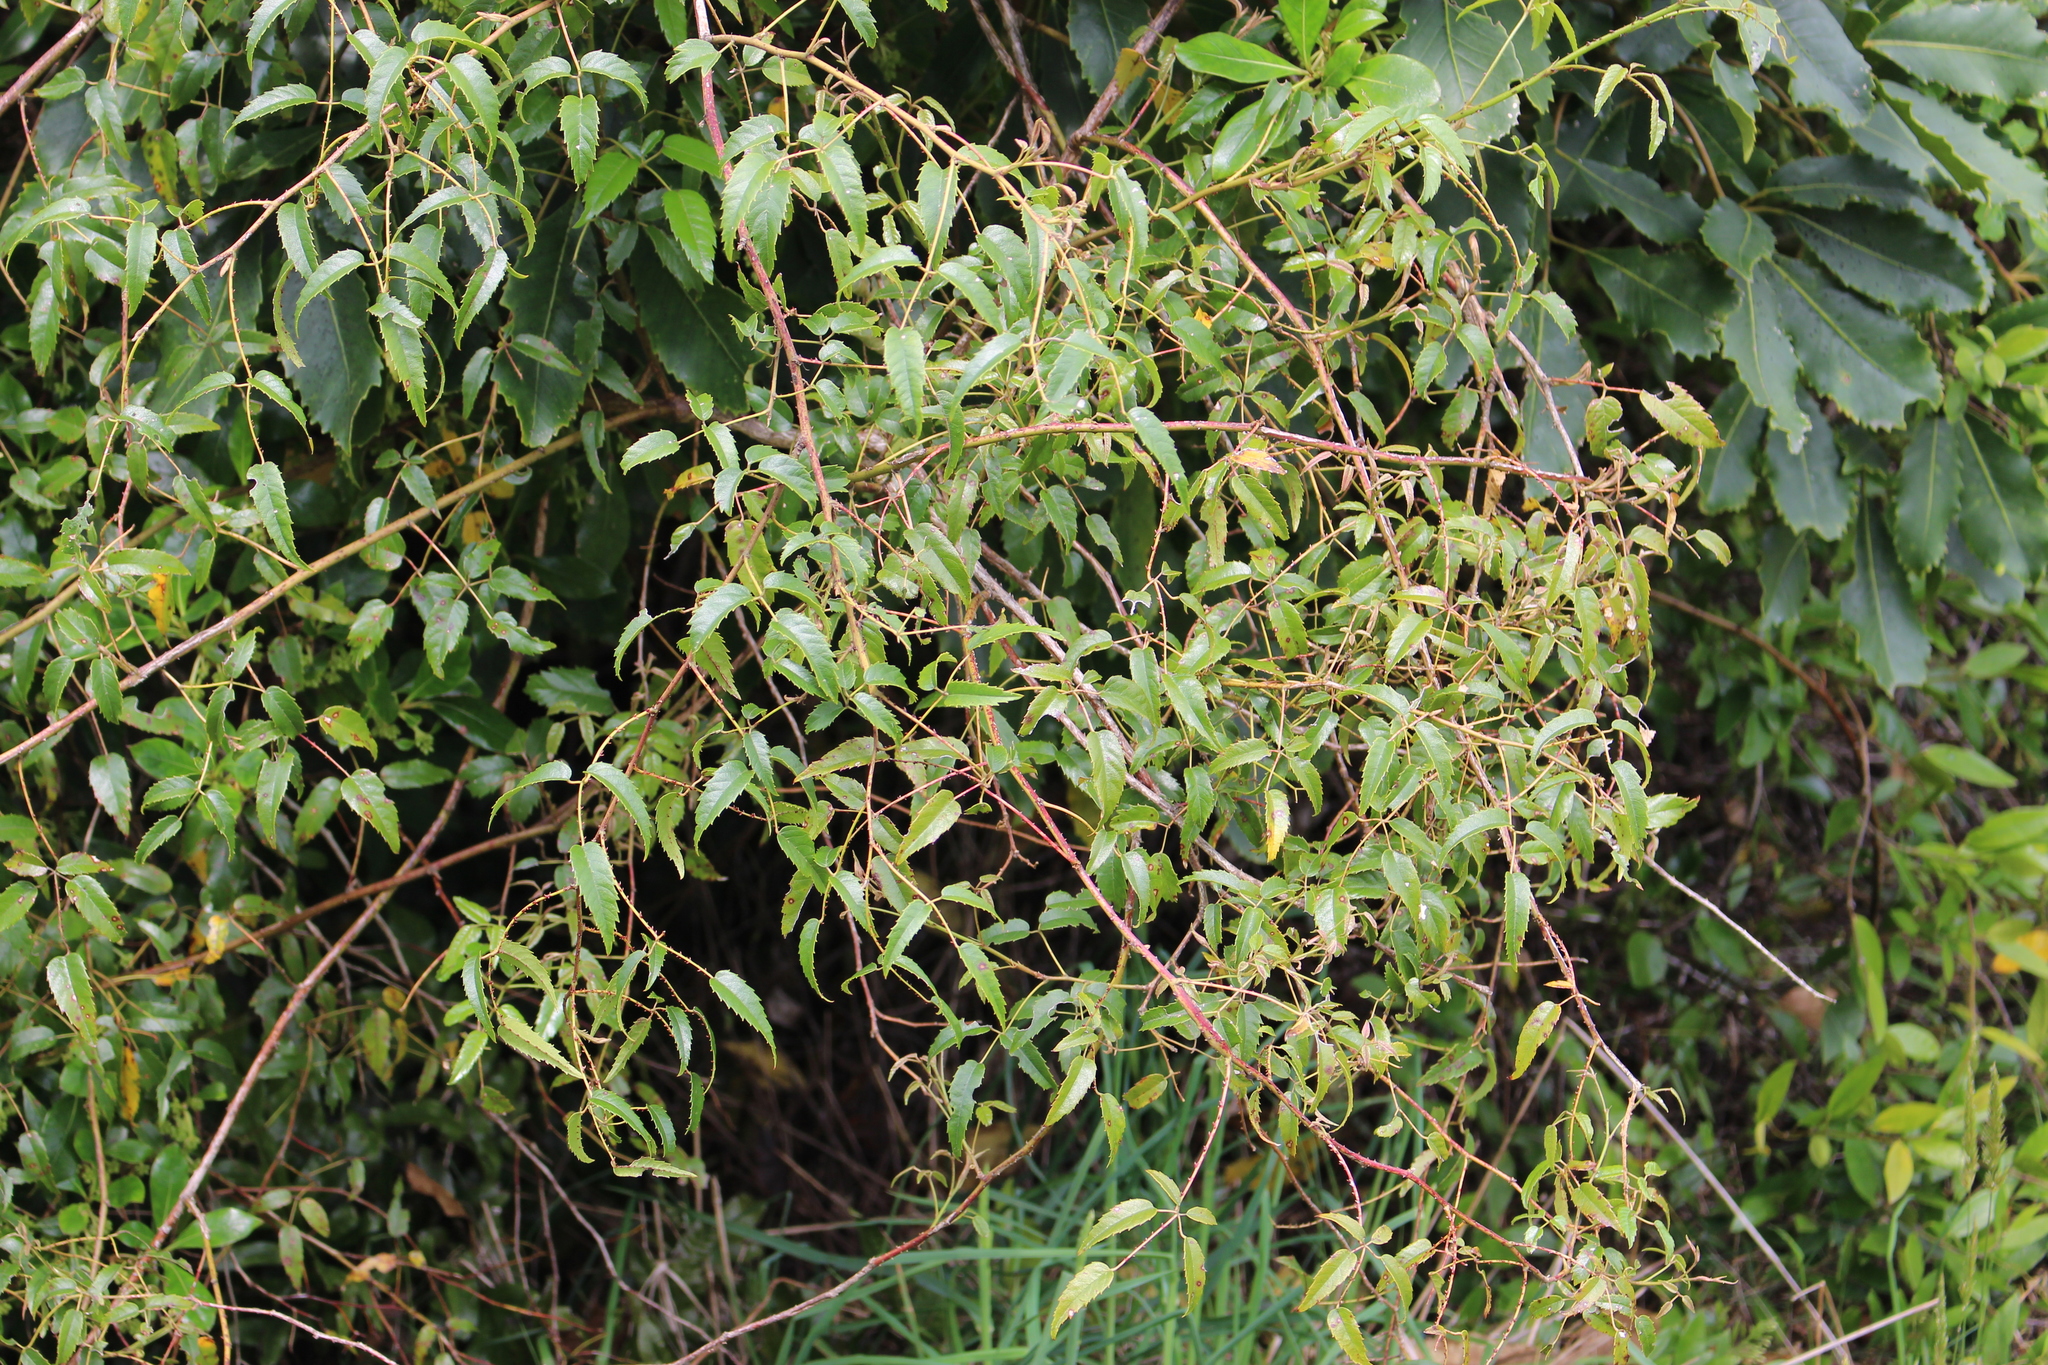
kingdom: Plantae
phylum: Tracheophyta
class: Magnoliopsida
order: Rosales
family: Rosaceae
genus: Rubus
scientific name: Rubus schmidelioides
